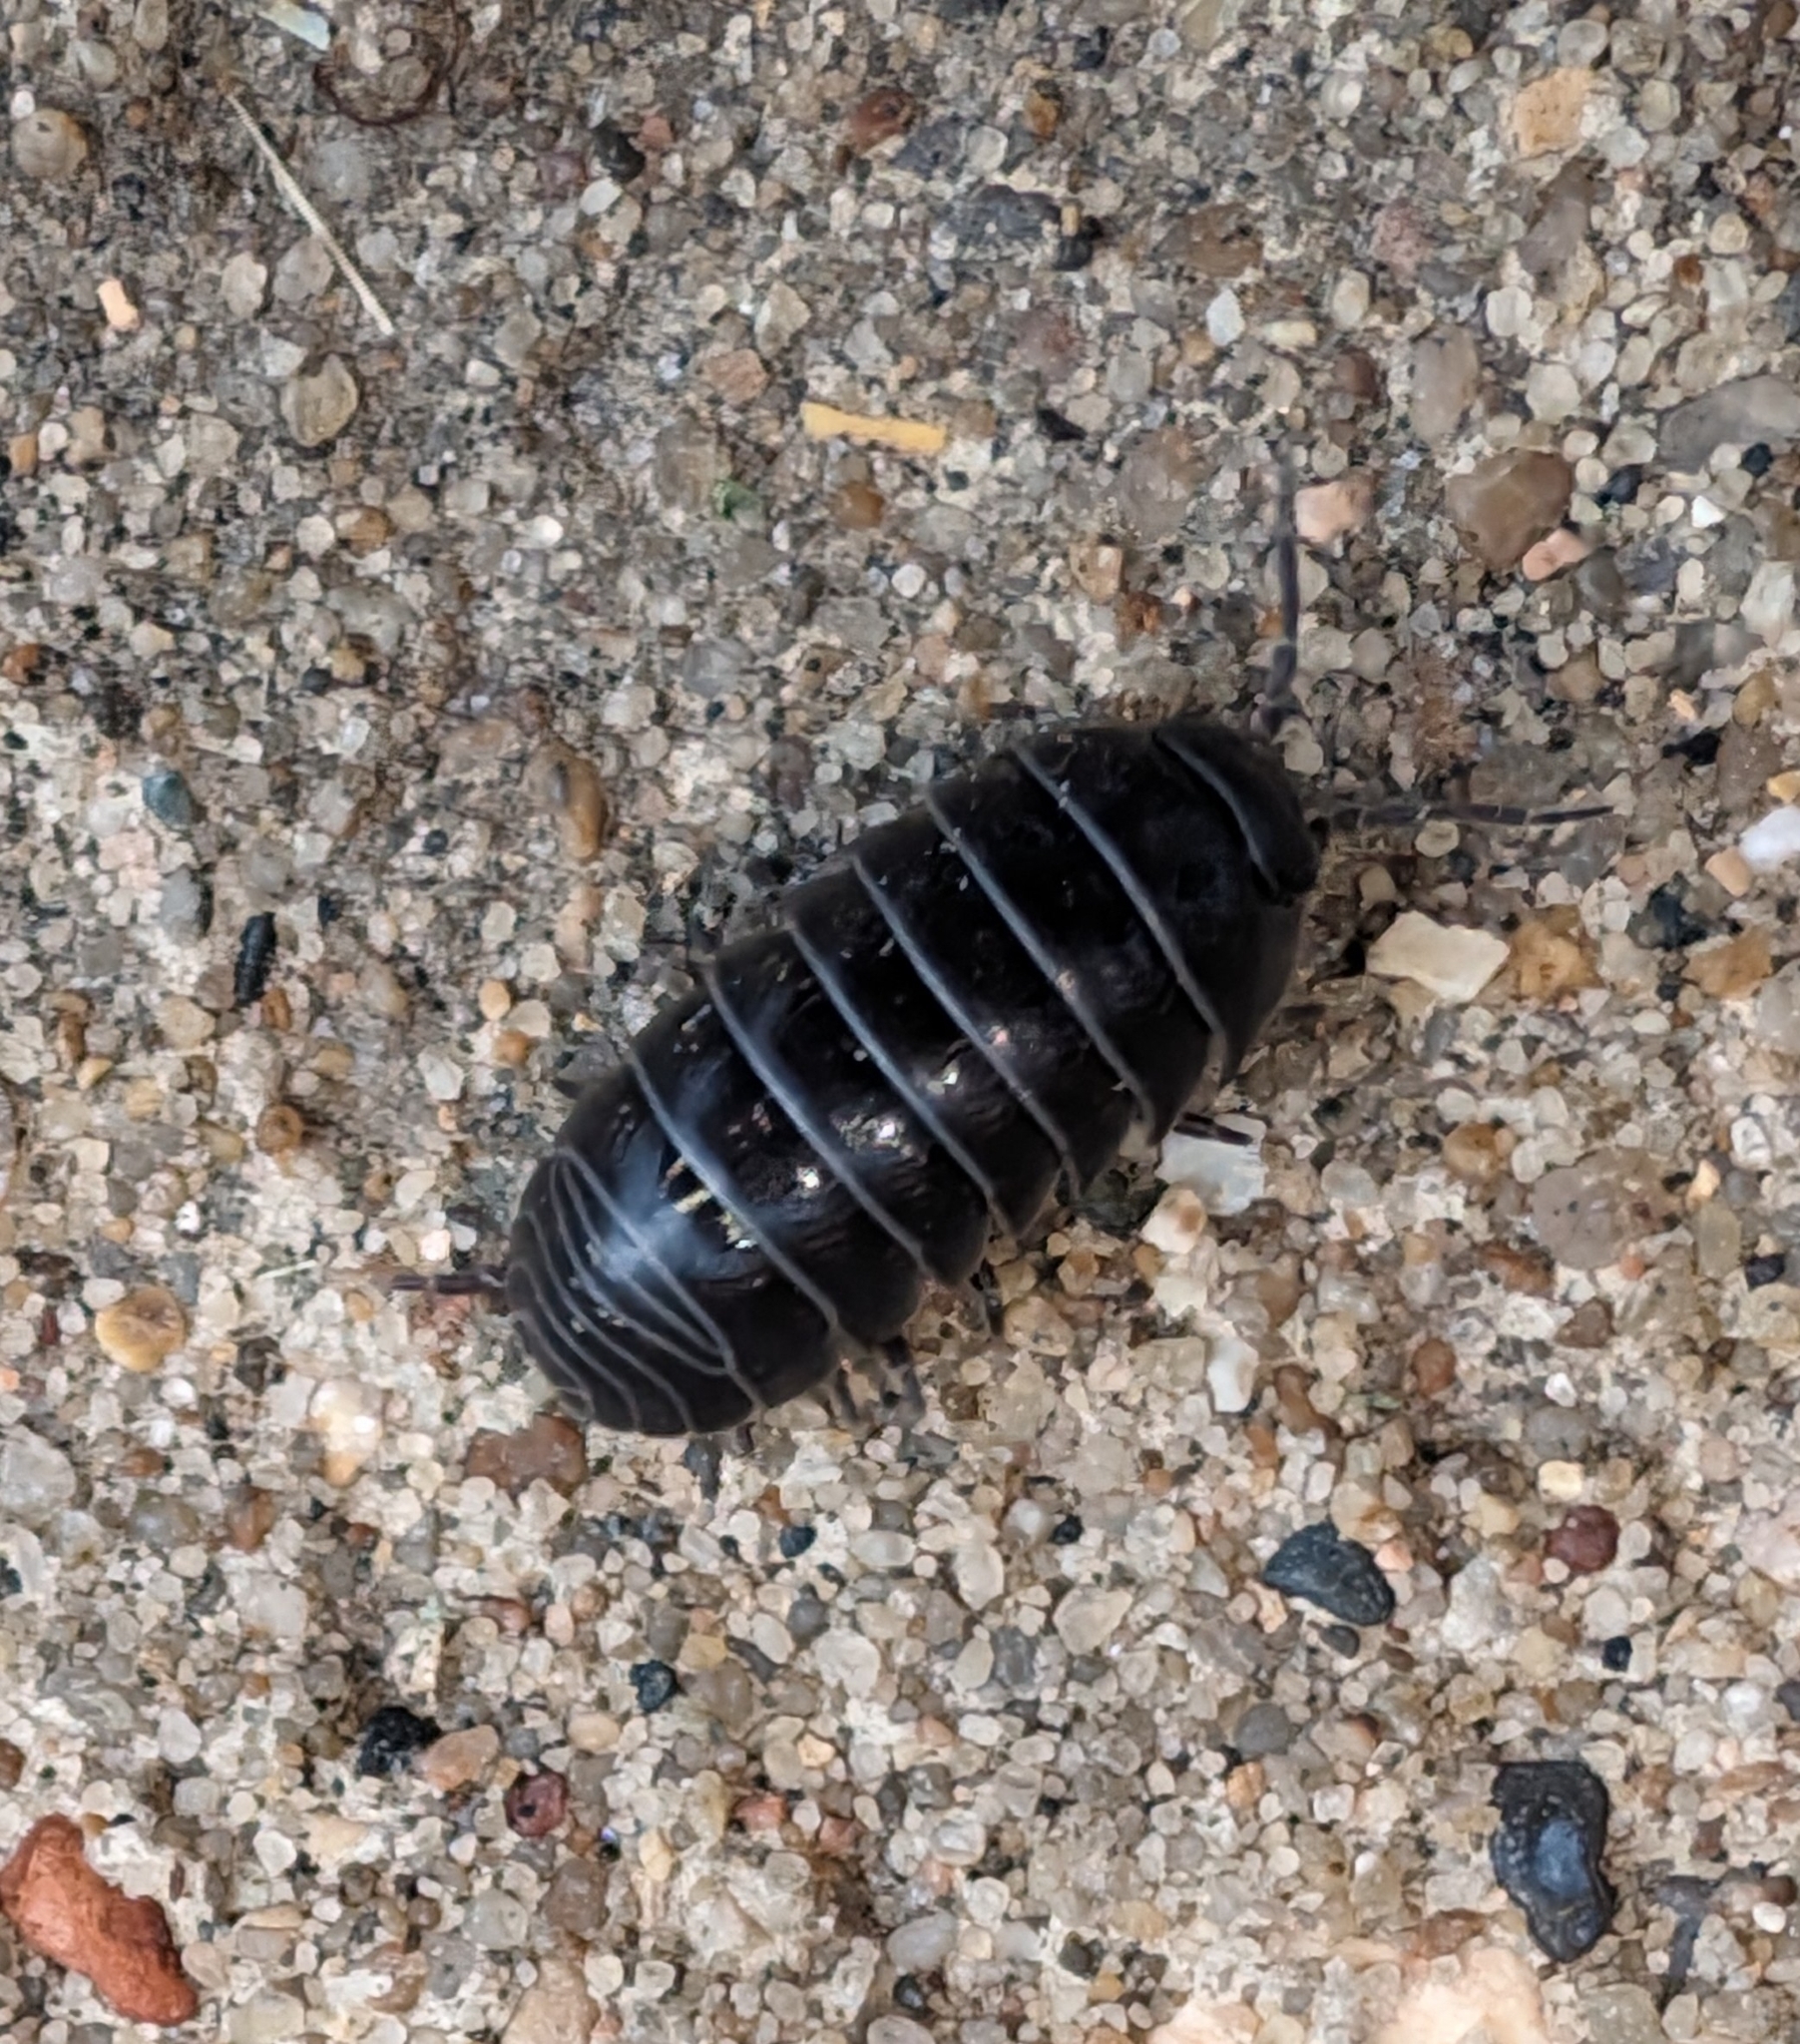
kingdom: Animalia
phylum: Arthropoda
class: Malacostraca
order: Isopoda
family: Armadillidiidae
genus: Armadillidium
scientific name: Armadillidium vulgare
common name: Common pill woodlouse
